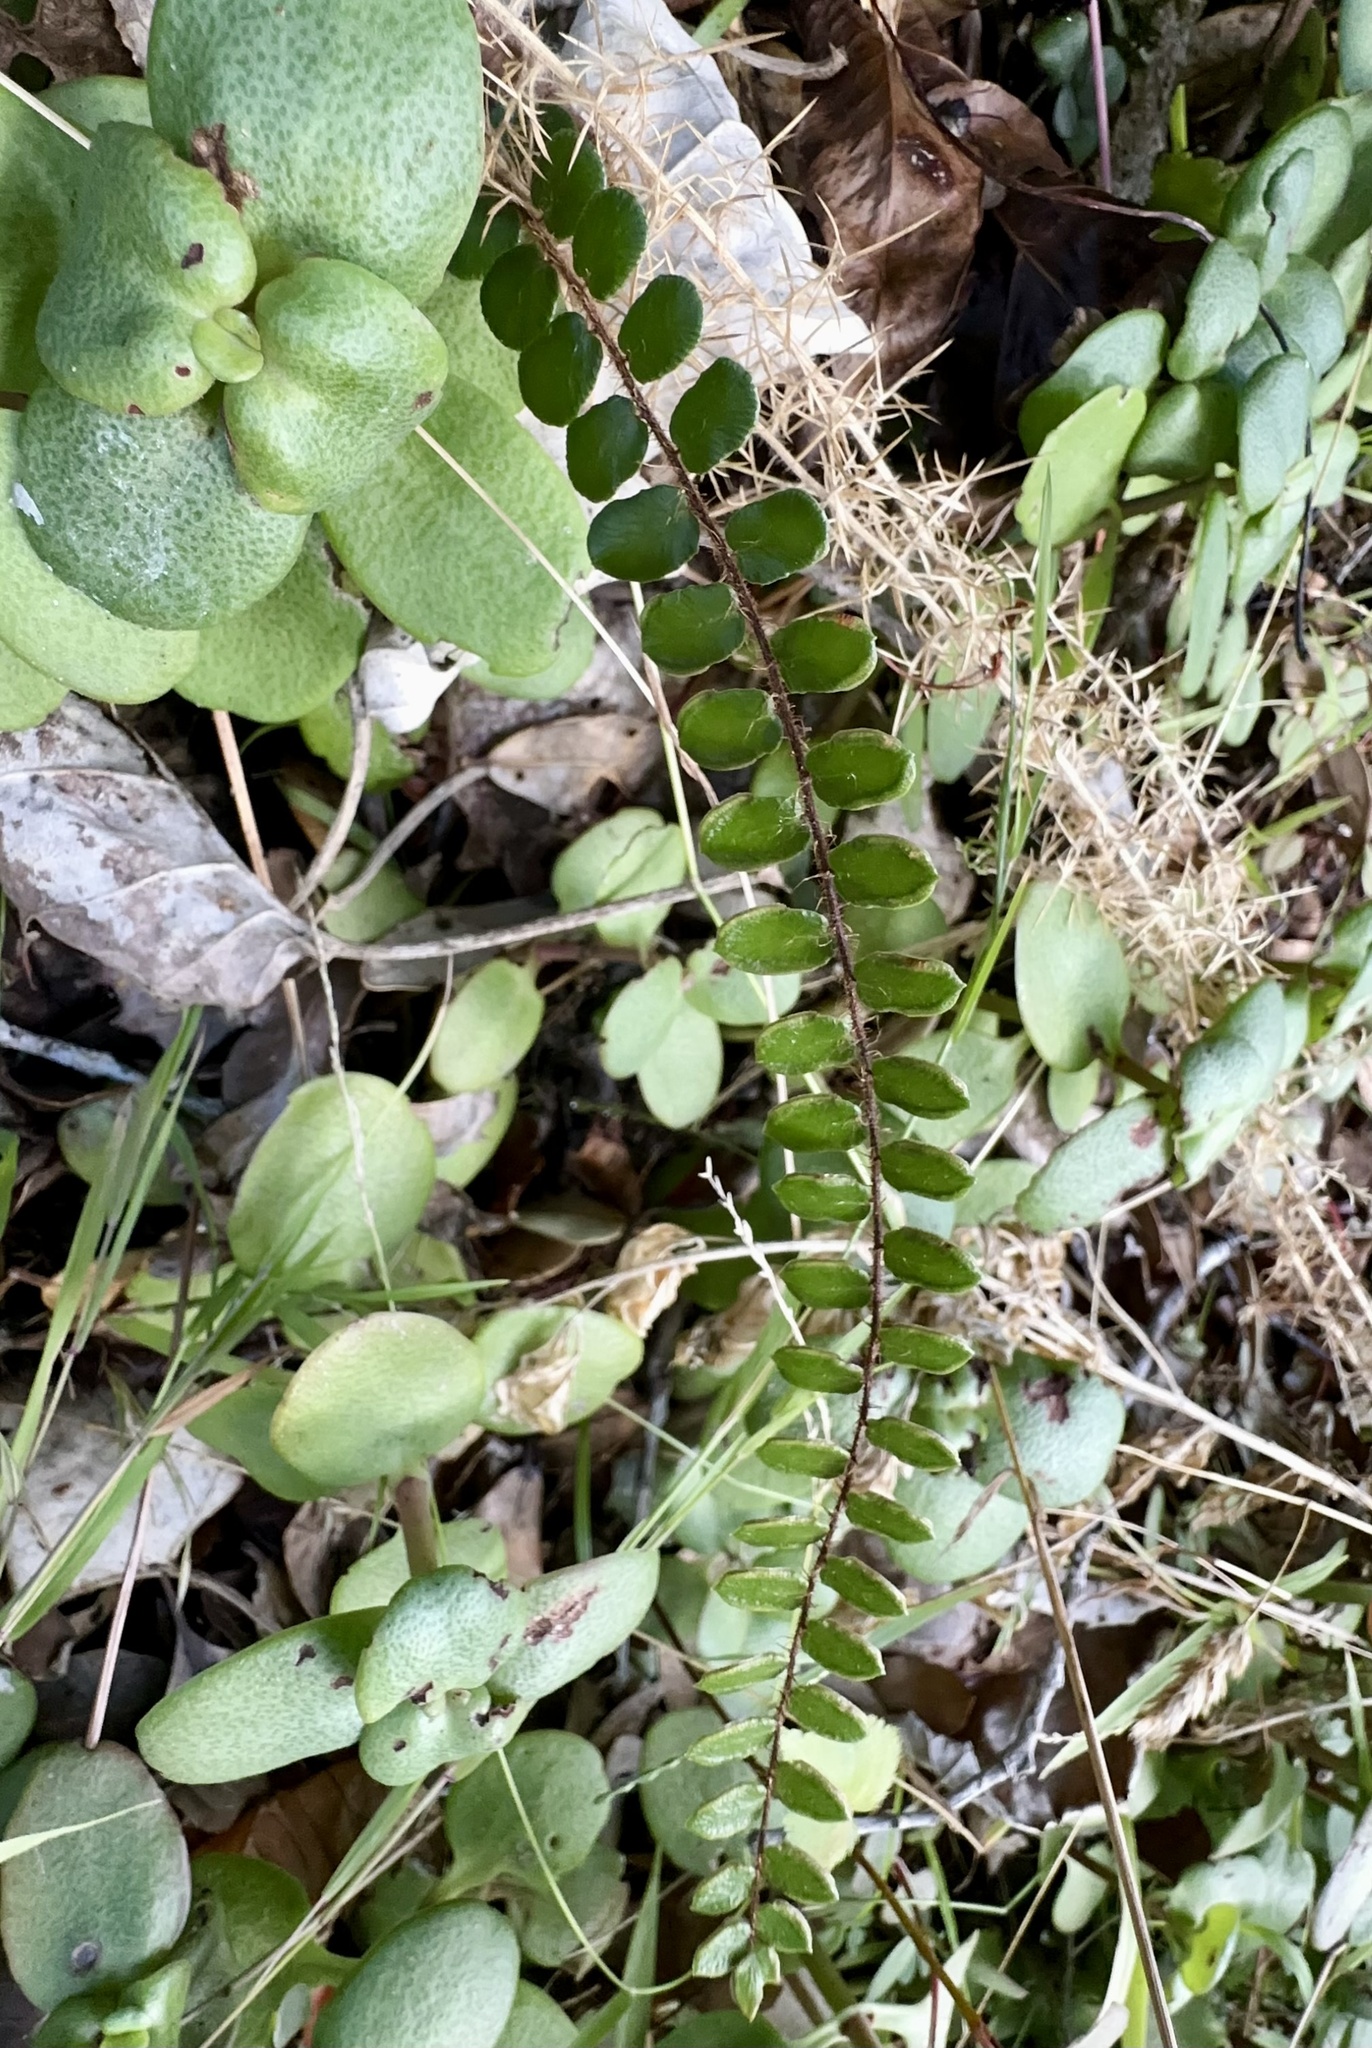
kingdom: Plantae
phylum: Tracheophyta
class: Polypodiopsida
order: Polypodiales
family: Pteridaceae
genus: Pellaea
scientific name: Pellaea rotundifolia
